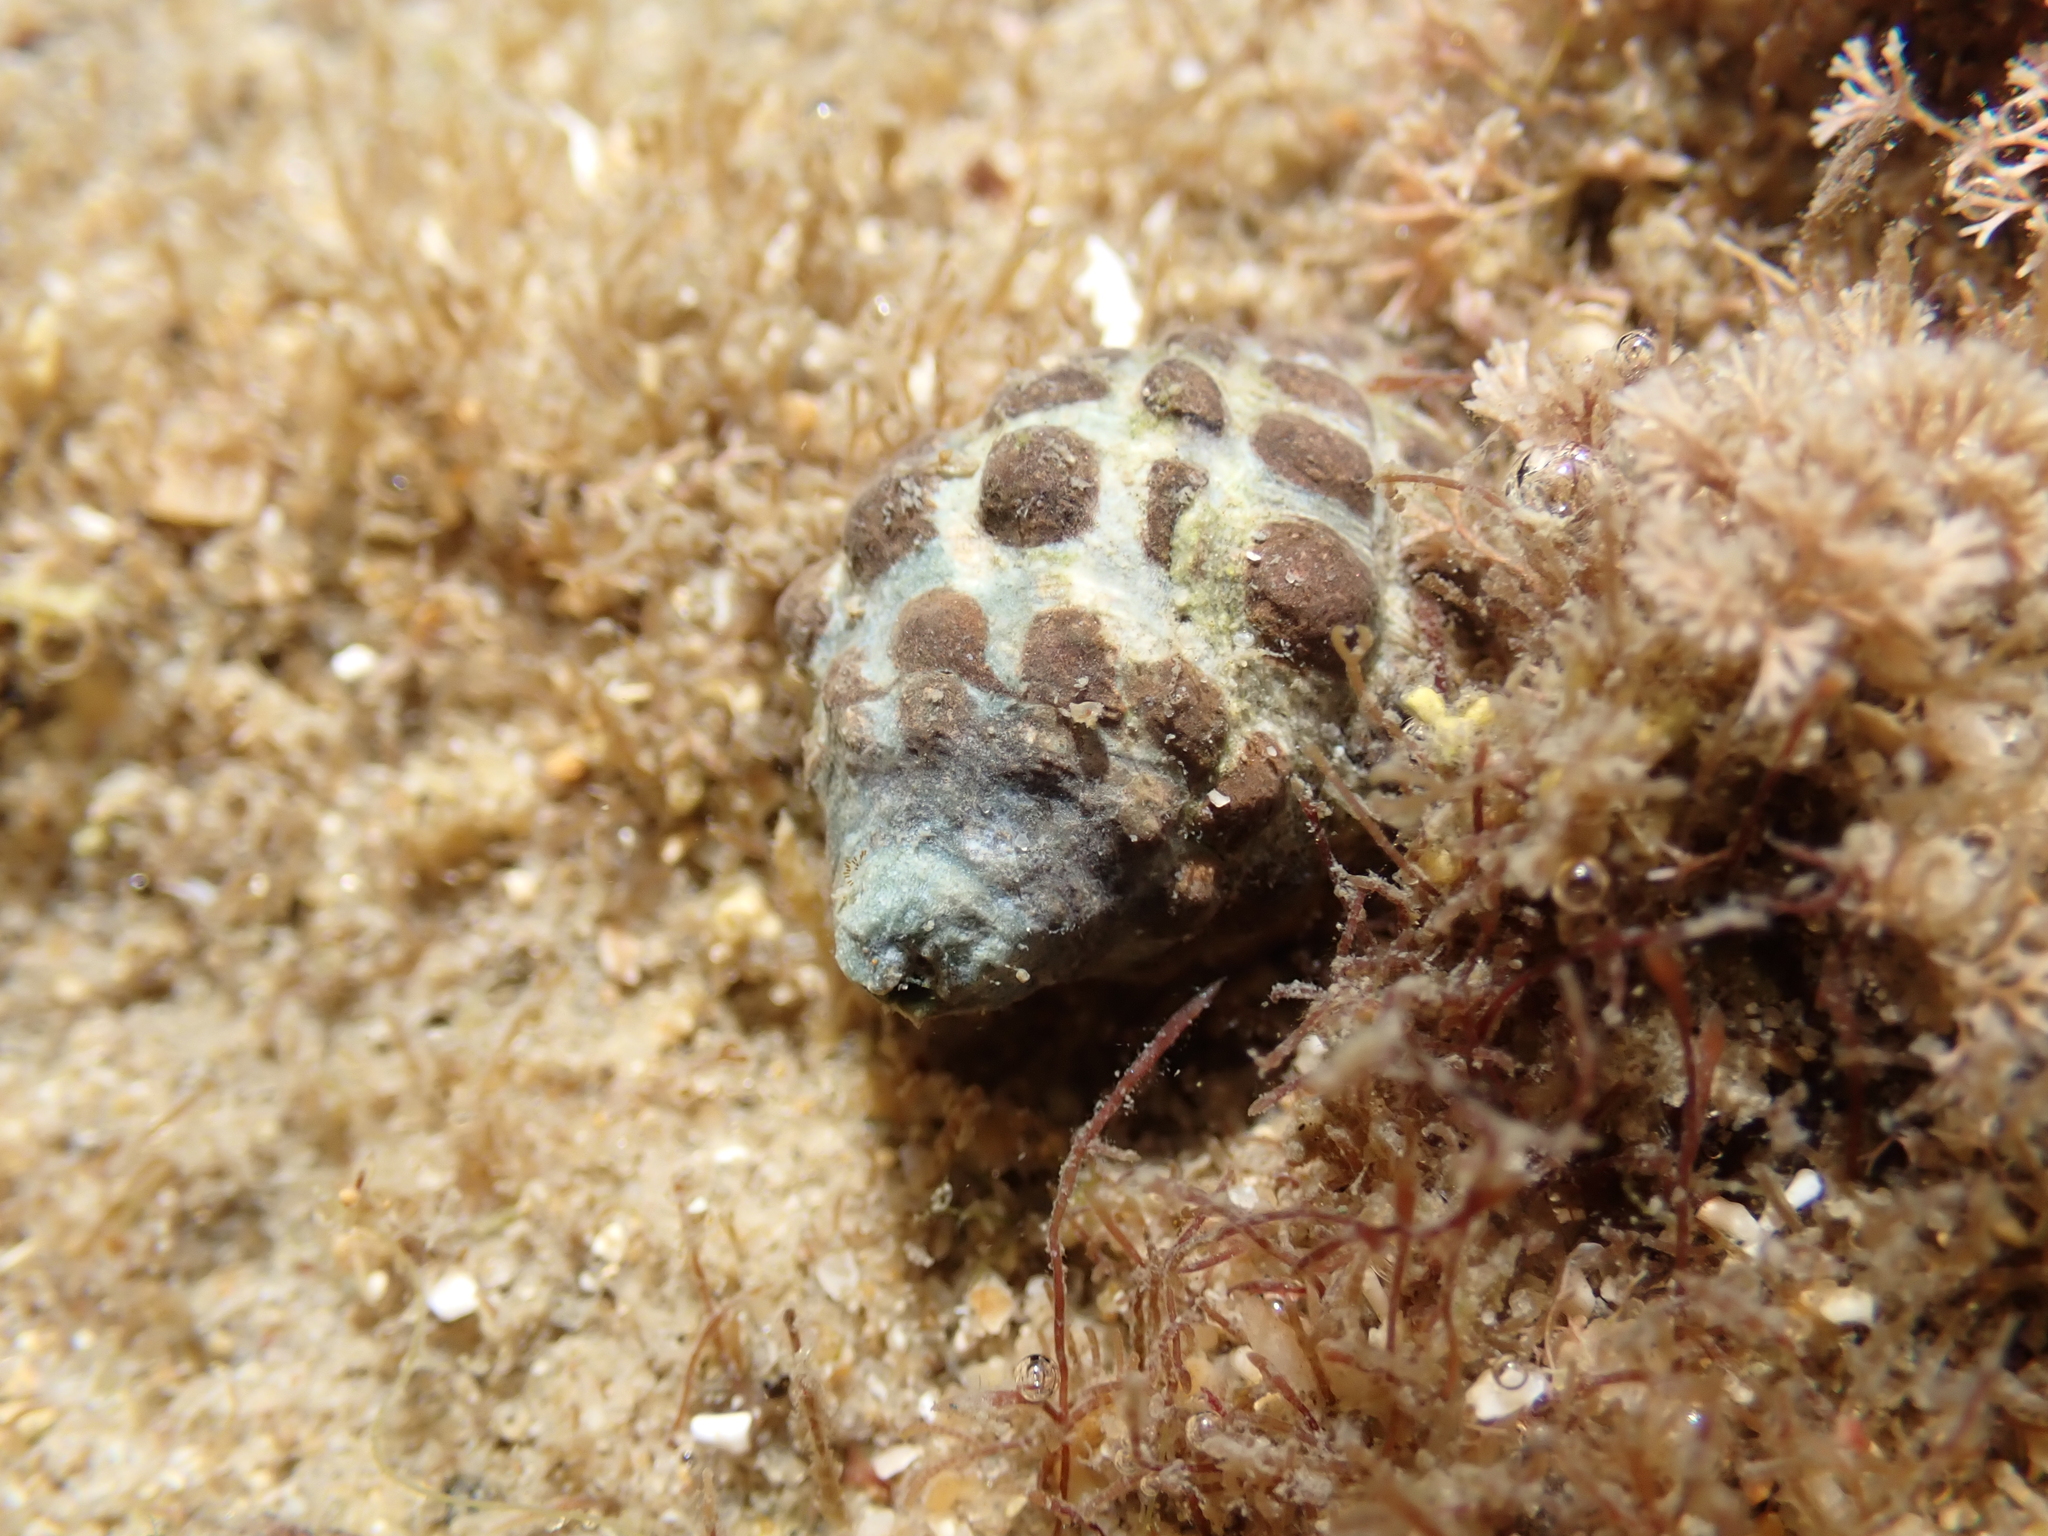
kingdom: Animalia
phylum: Mollusca
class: Gastropoda
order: Neogastropoda
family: Muricidae
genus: Tenguella
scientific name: Tenguella marginalba
